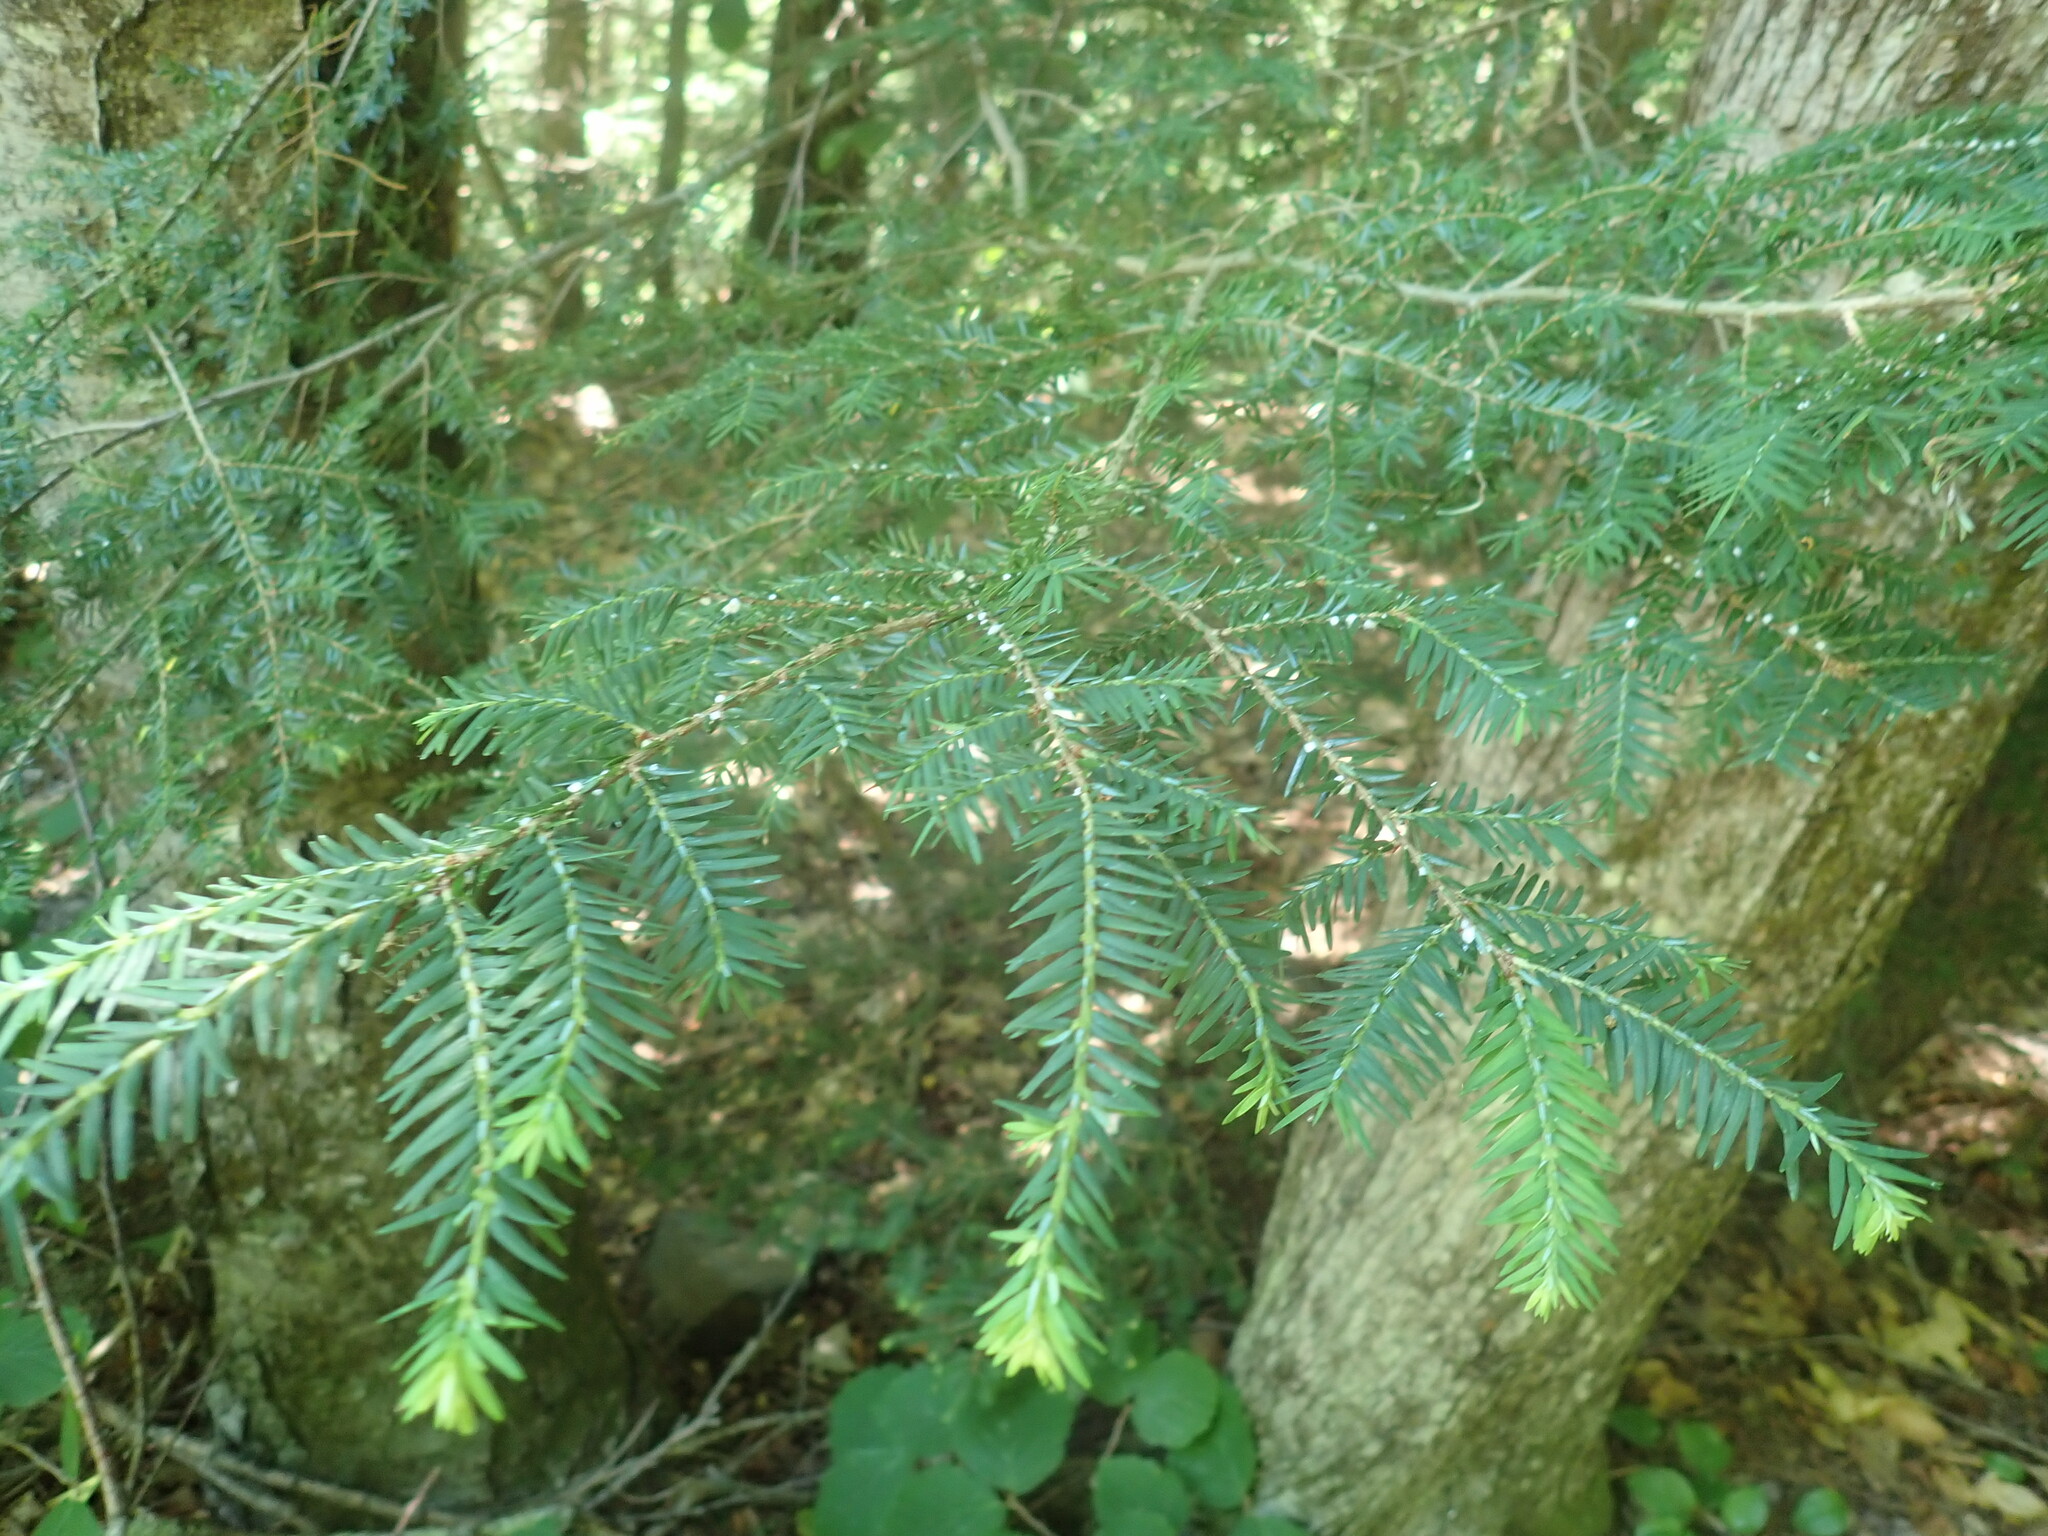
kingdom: Plantae
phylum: Tracheophyta
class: Pinopsida
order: Pinales
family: Pinaceae
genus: Tsuga
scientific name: Tsuga canadensis
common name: Eastern hemlock
